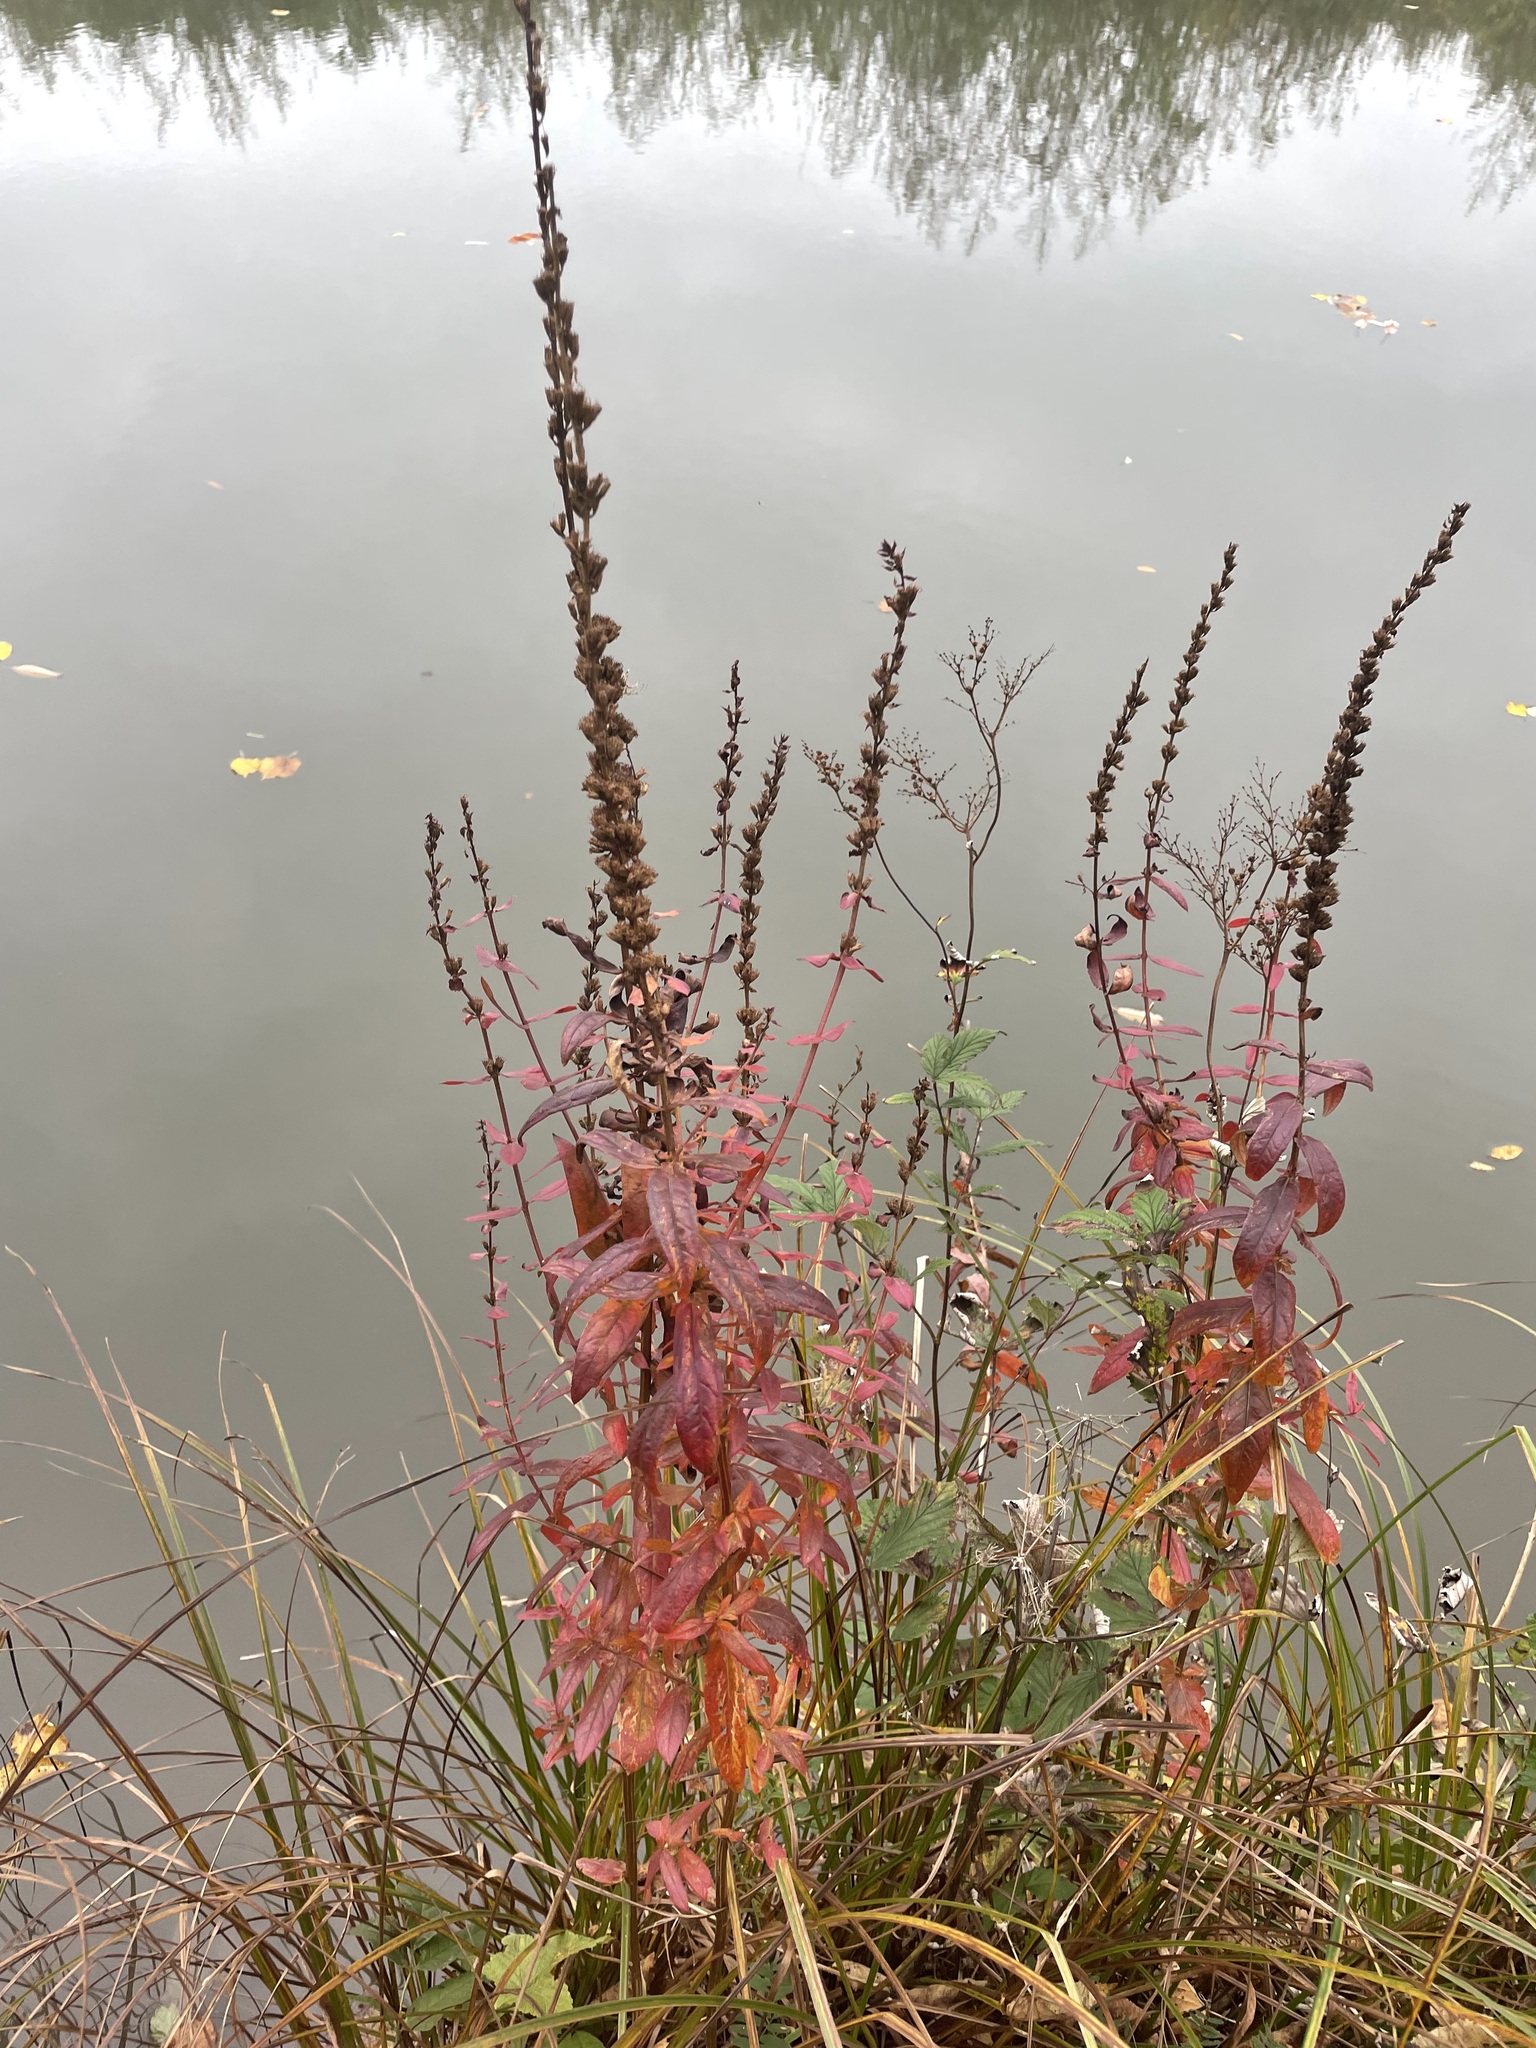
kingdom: Plantae
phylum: Tracheophyta
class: Magnoliopsida
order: Myrtales
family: Lythraceae
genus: Lythrum
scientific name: Lythrum salicaria
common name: Purple loosestrife
